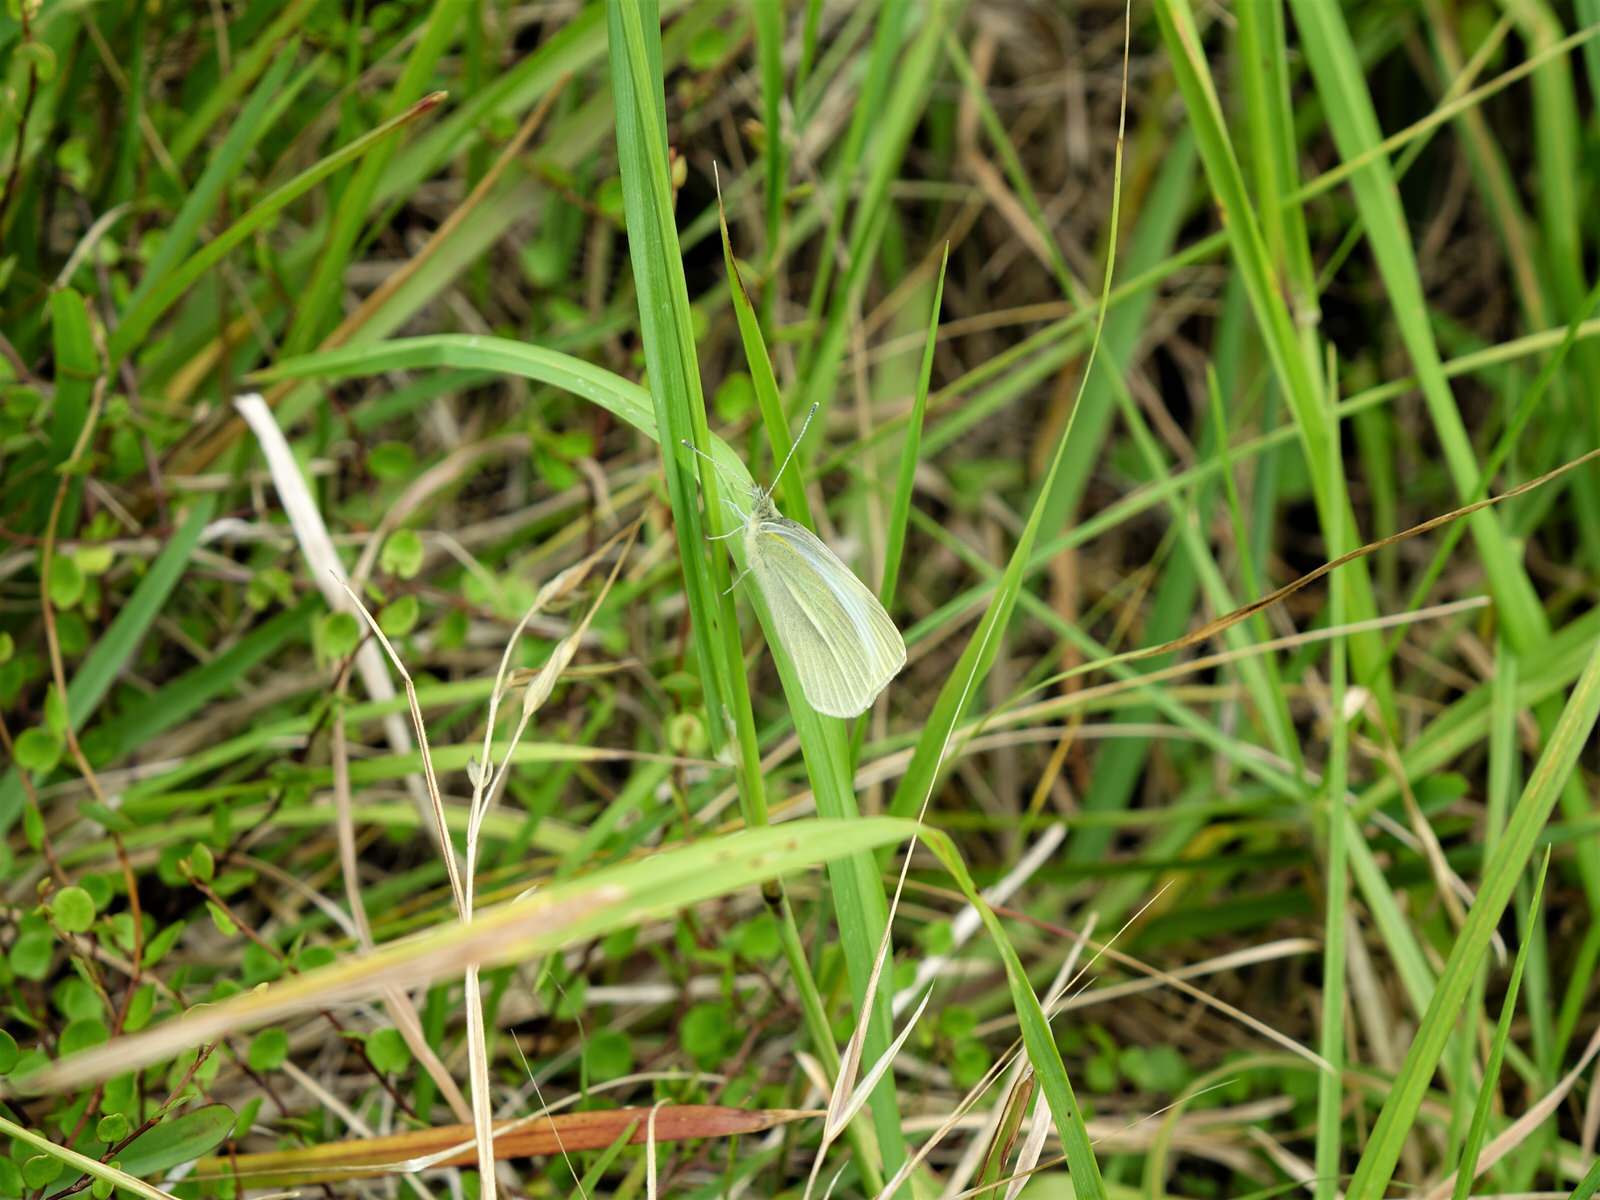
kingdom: Animalia
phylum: Arthropoda
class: Insecta
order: Lepidoptera
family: Pieridae
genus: Pieris
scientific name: Pieris rapae
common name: Small white
